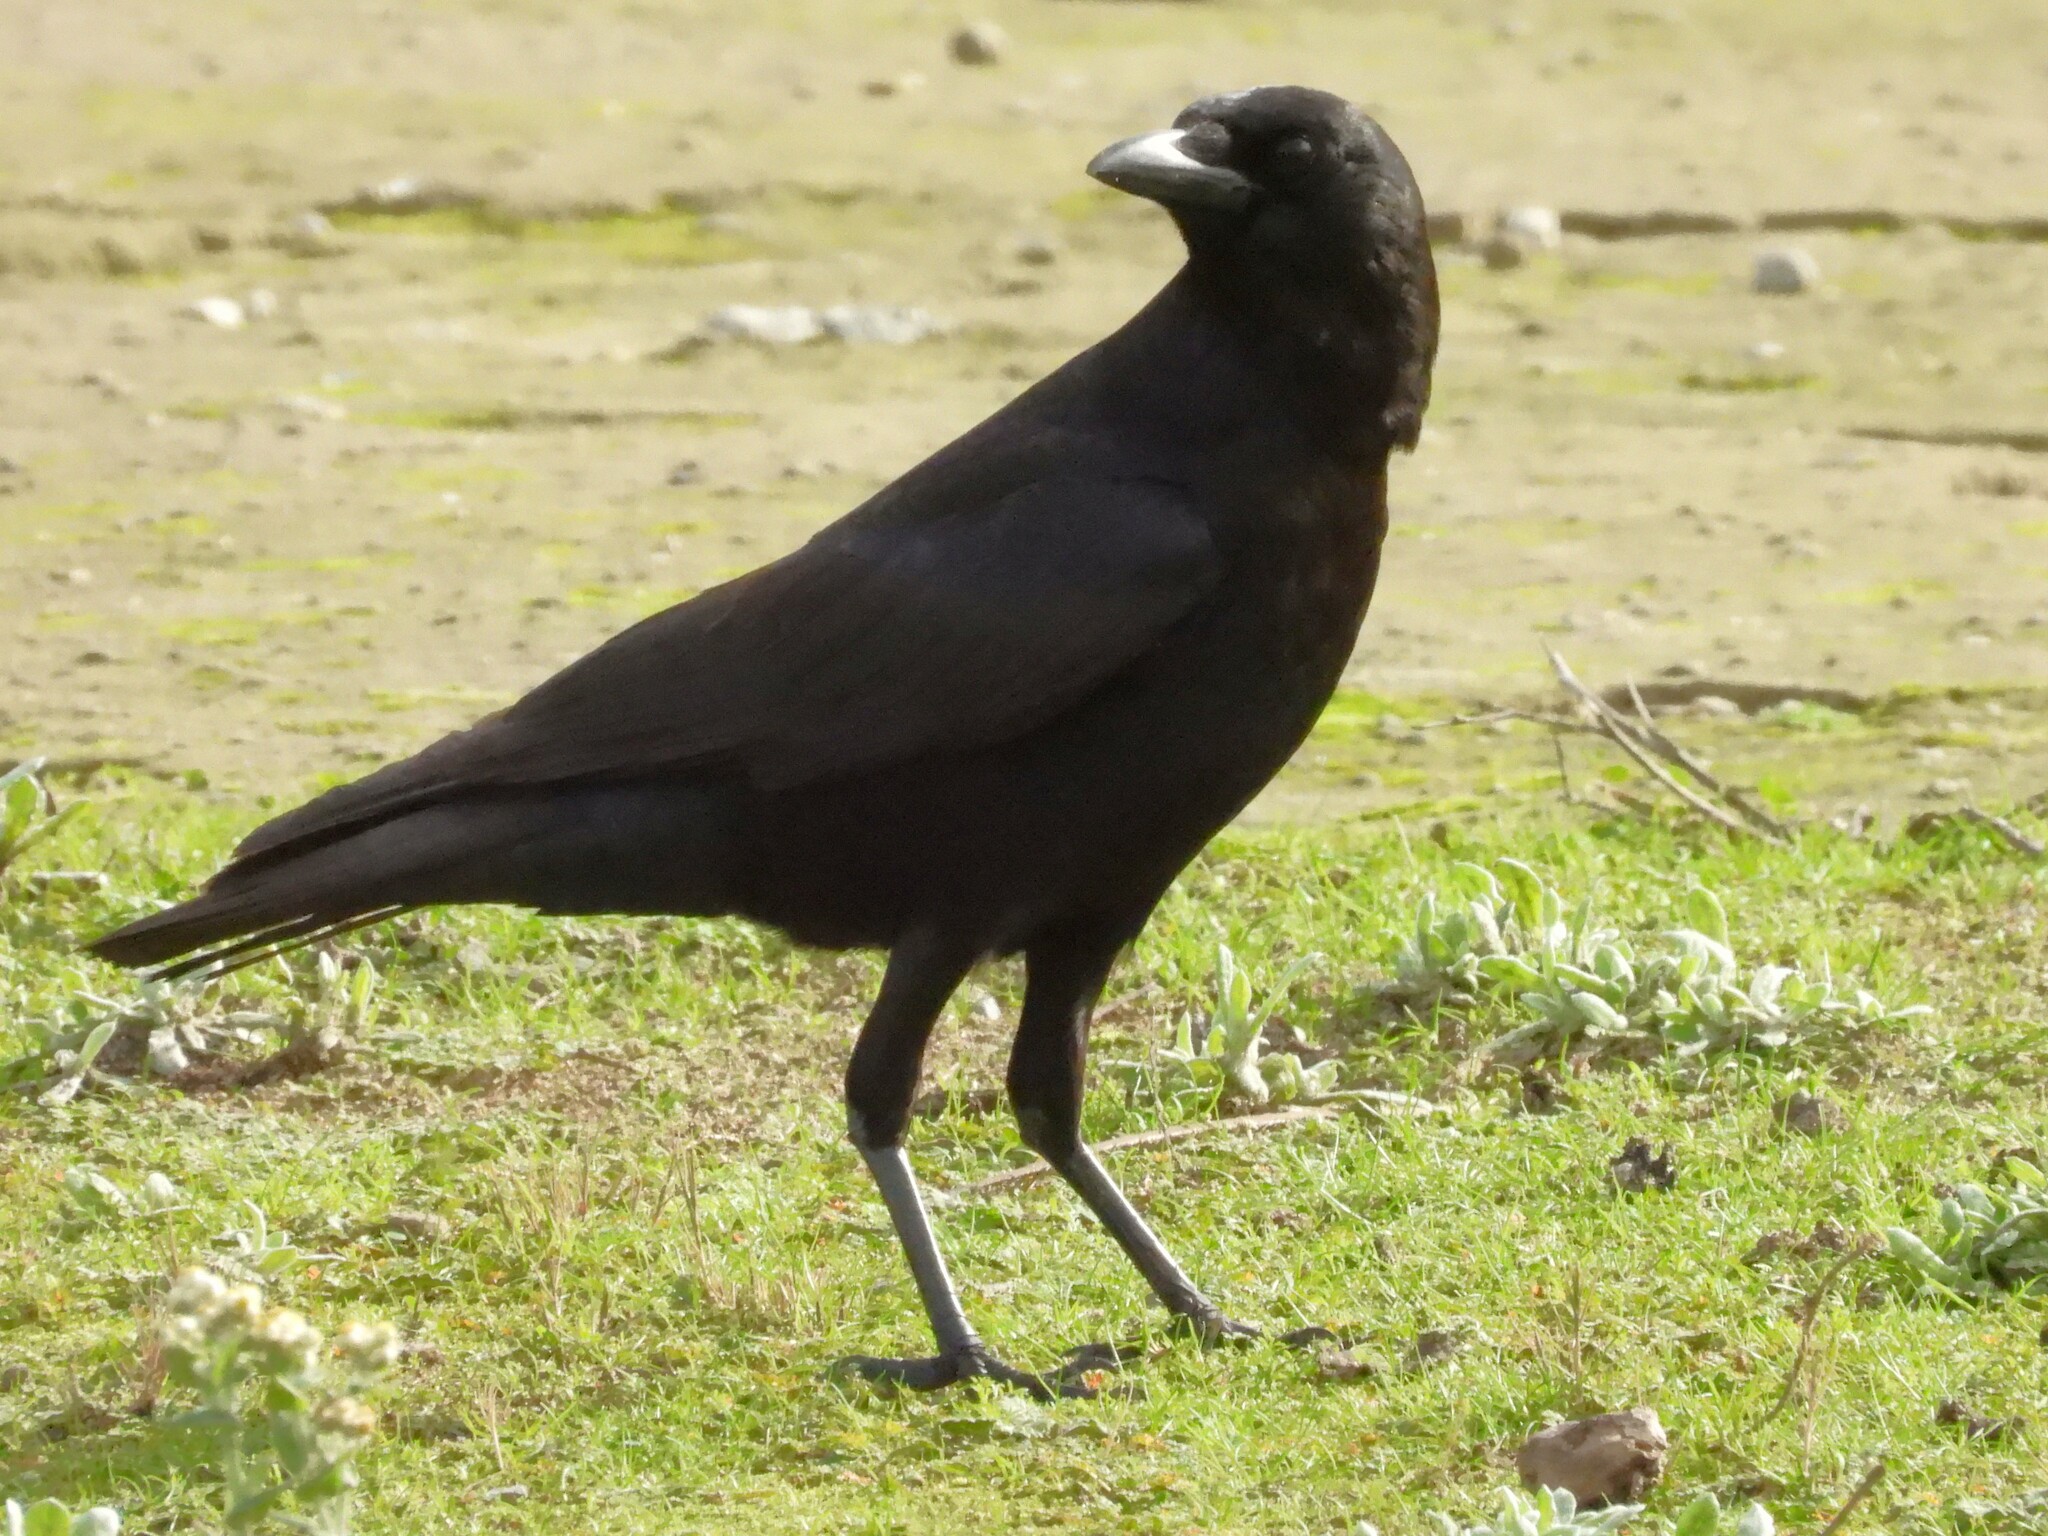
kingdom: Animalia
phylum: Chordata
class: Aves
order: Passeriformes
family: Corvidae
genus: Corvus
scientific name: Corvus brachyrhynchos
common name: American crow
